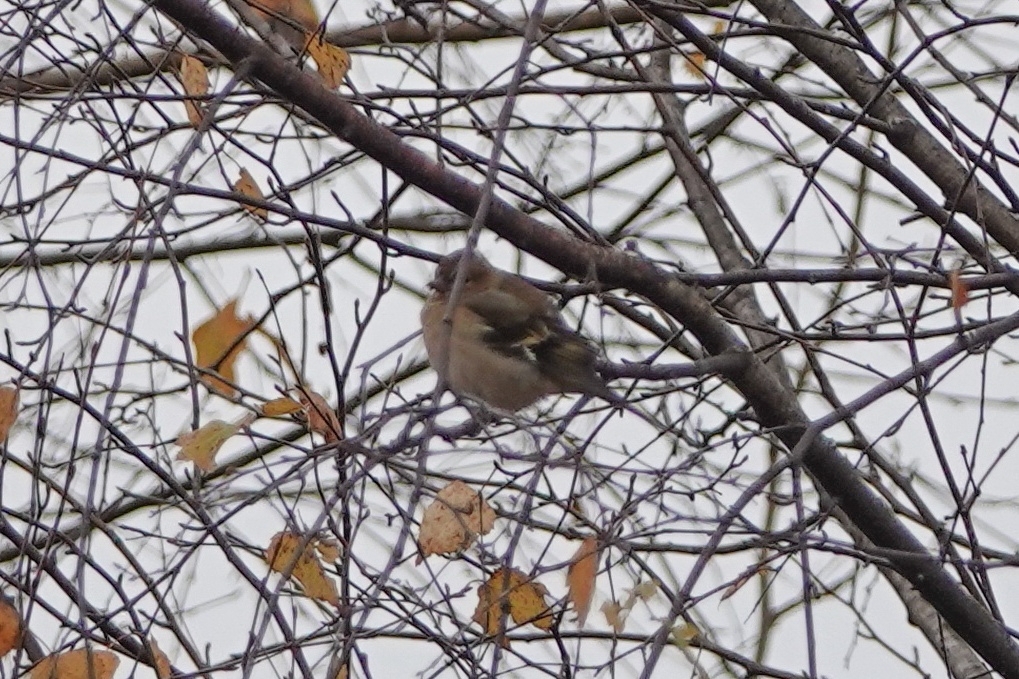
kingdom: Animalia
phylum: Chordata
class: Aves
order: Passeriformes
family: Fringillidae
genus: Fringilla
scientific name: Fringilla coelebs
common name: Common chaffinch
